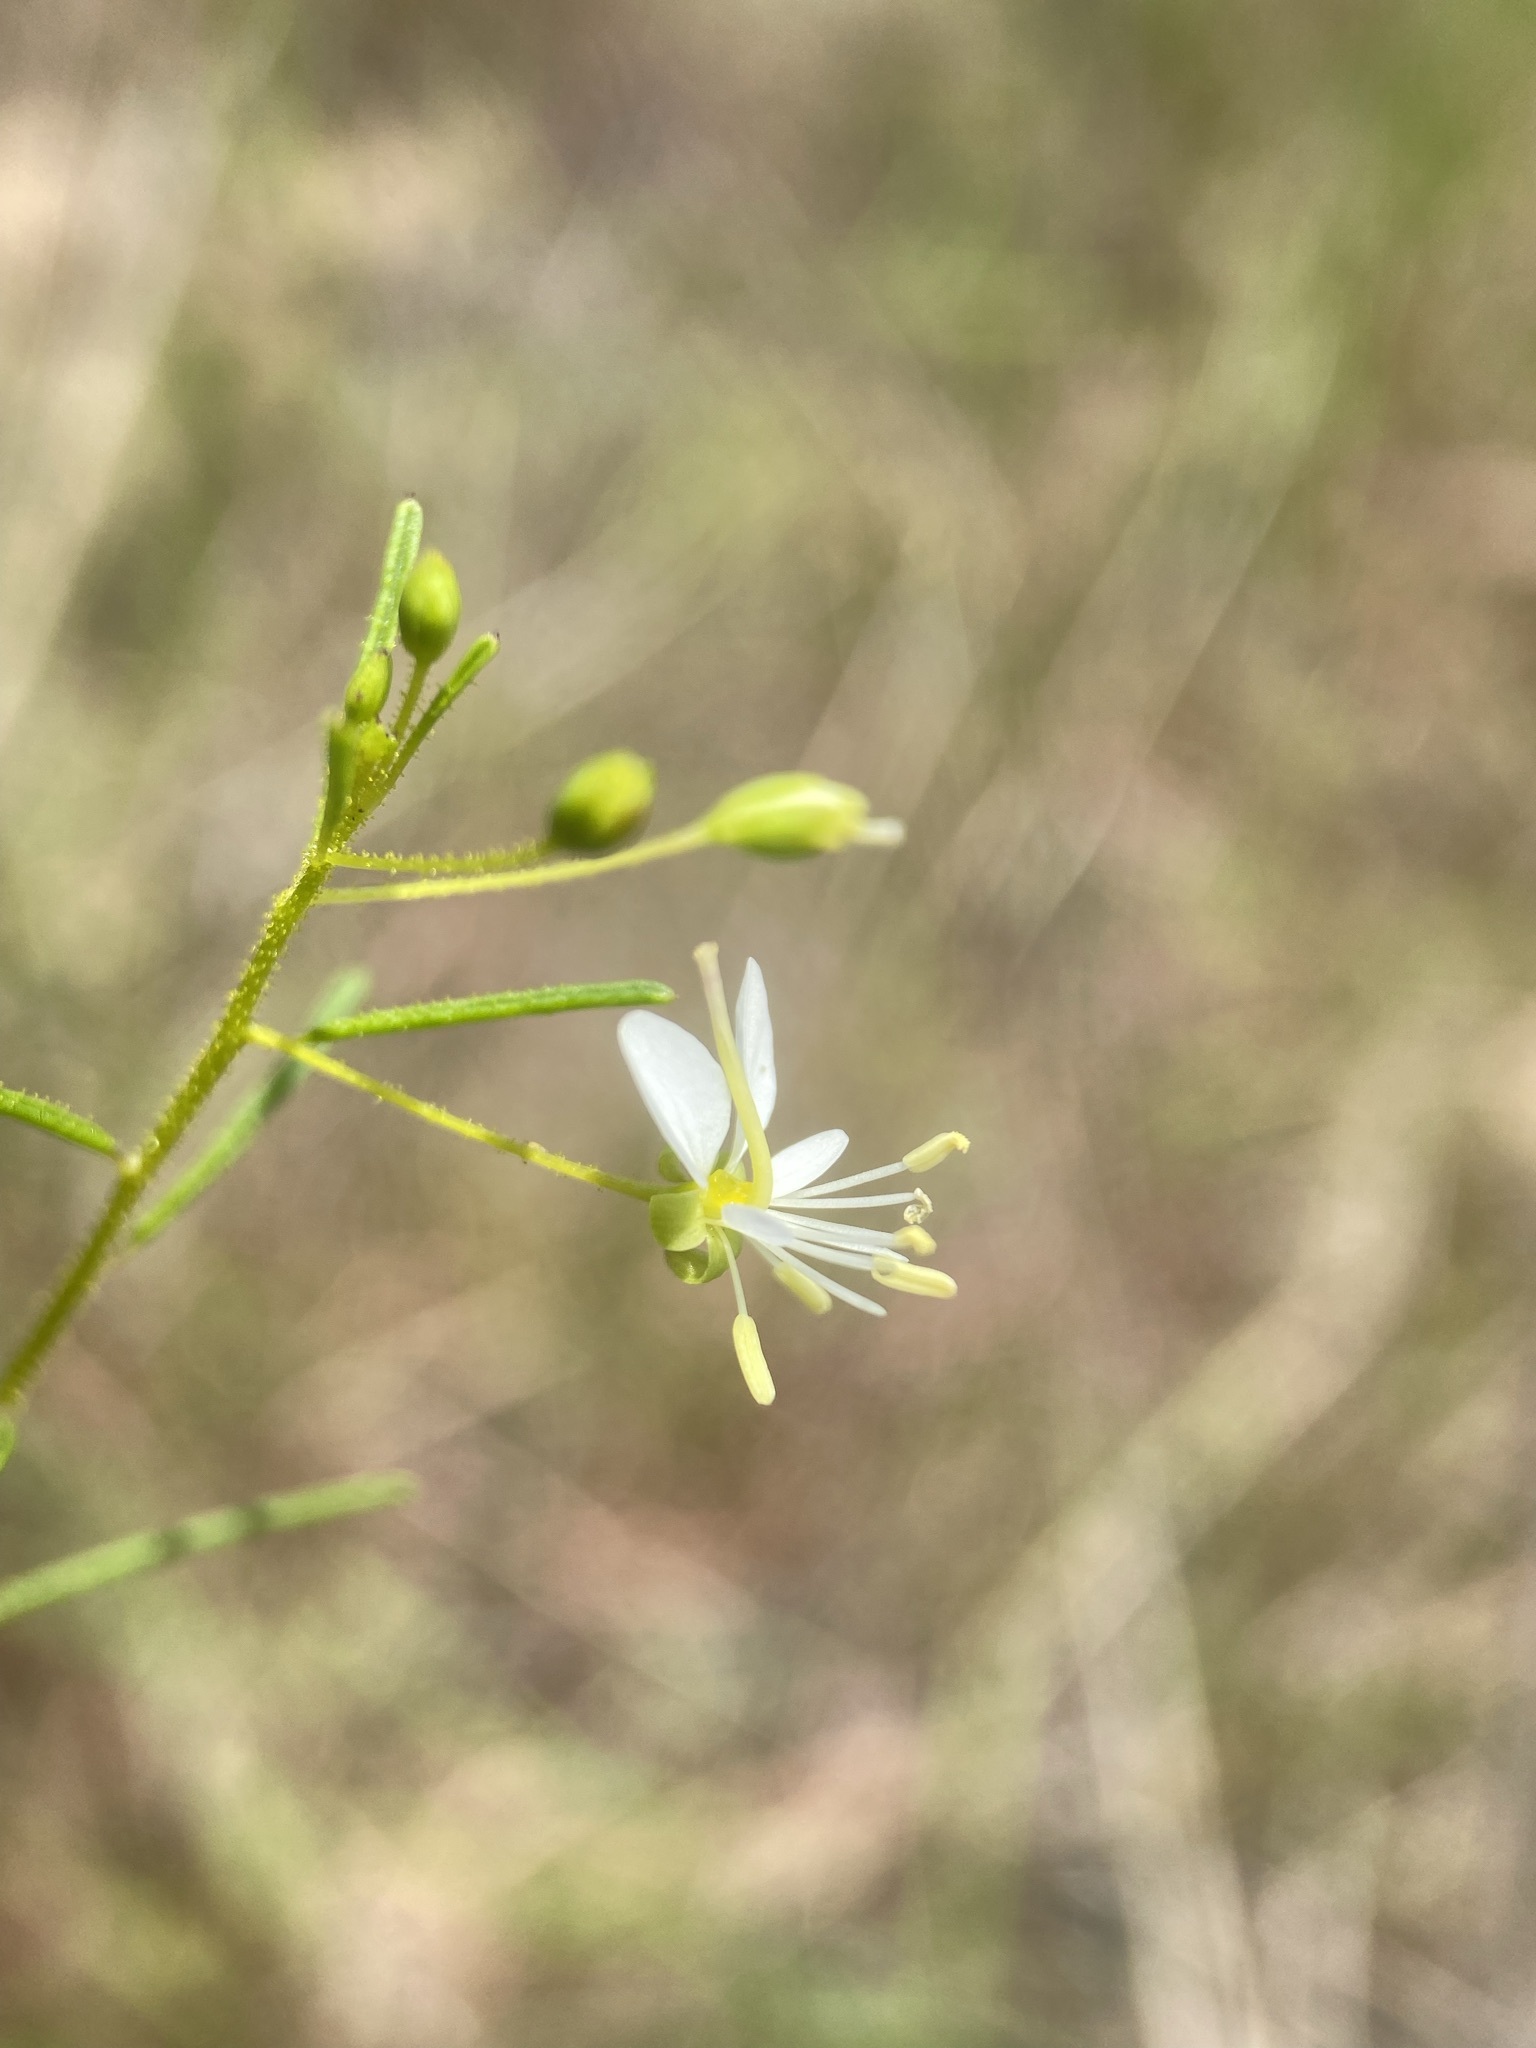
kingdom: Plantae
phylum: Tracheophyta
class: Magnoliopsida
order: Brassicales
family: Cleomaceae
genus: Polanisia
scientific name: Polanisia tenuifolia
